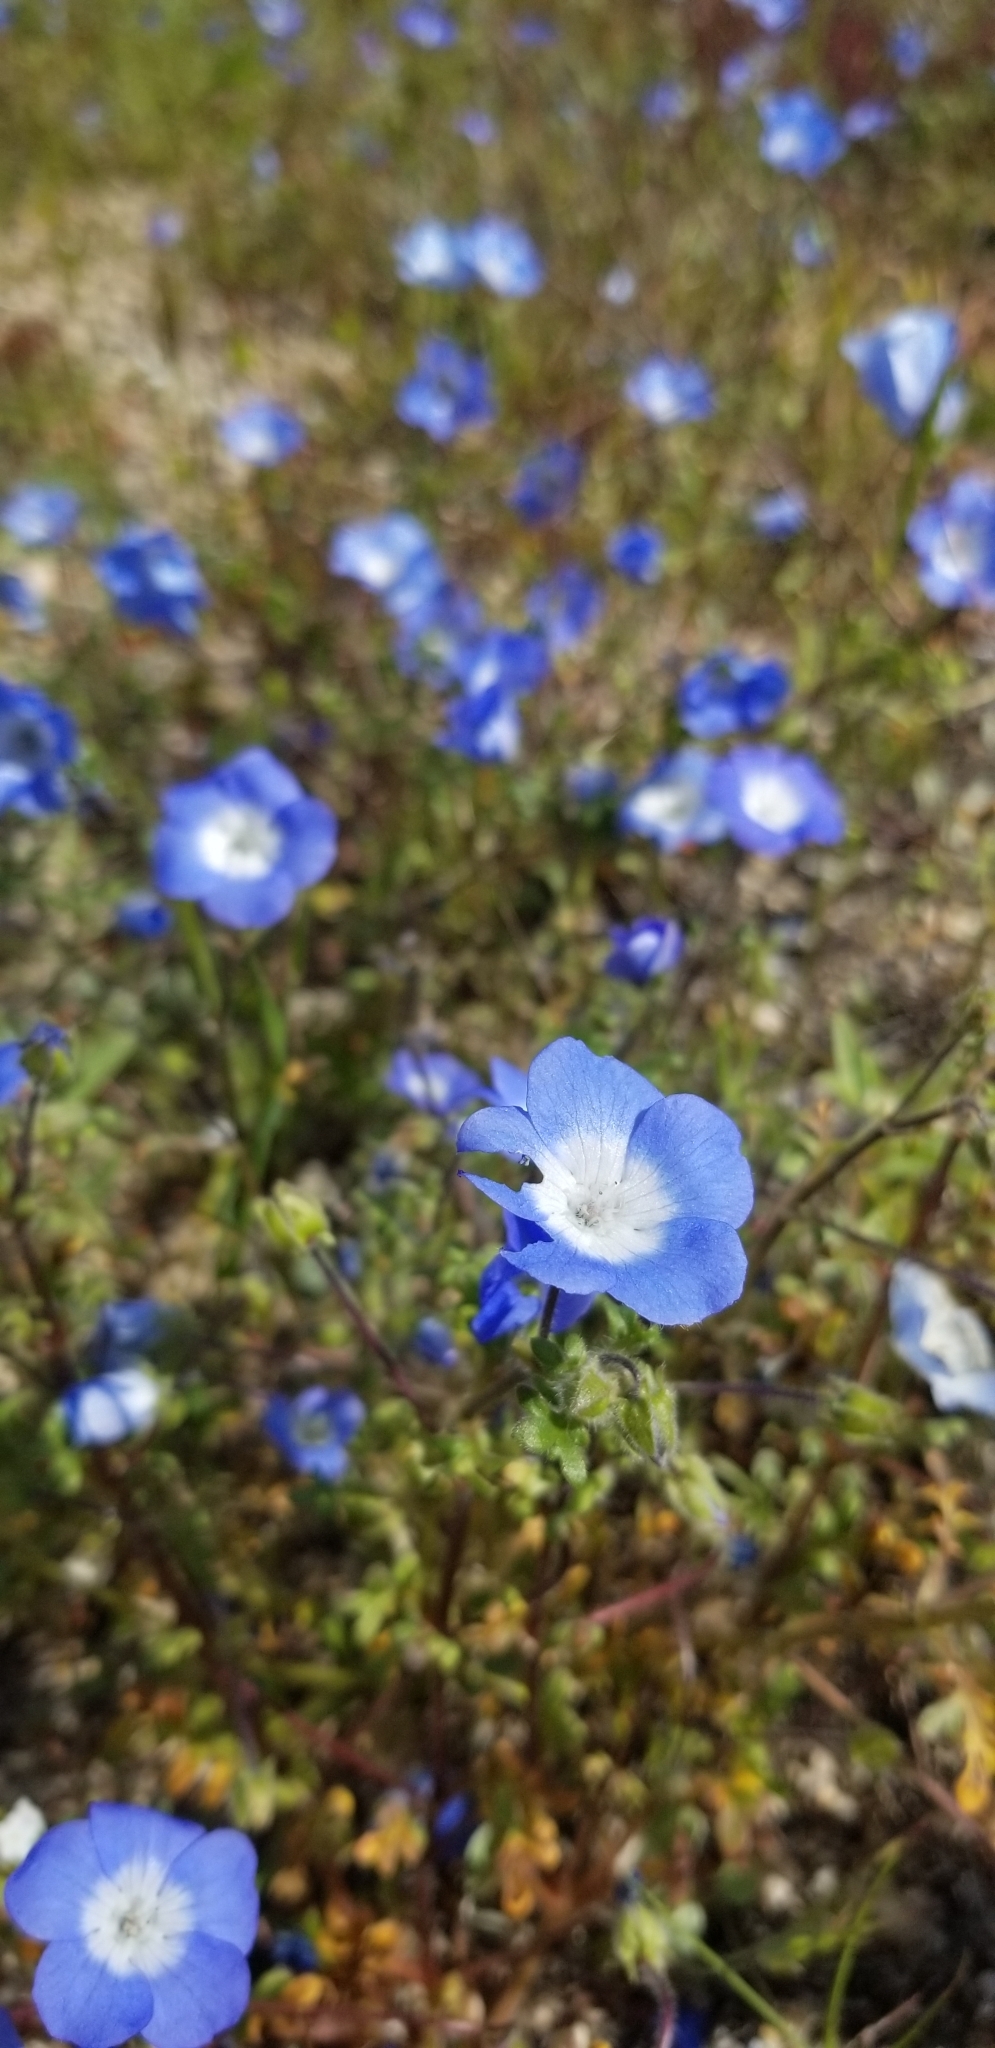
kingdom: Plantae
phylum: Tracheophyta
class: Magnoliopsida
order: Boraginales
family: Hydrophyllaceae
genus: Nemophila
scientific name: Nemophila menziesii
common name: Baby's-blue-eyes
